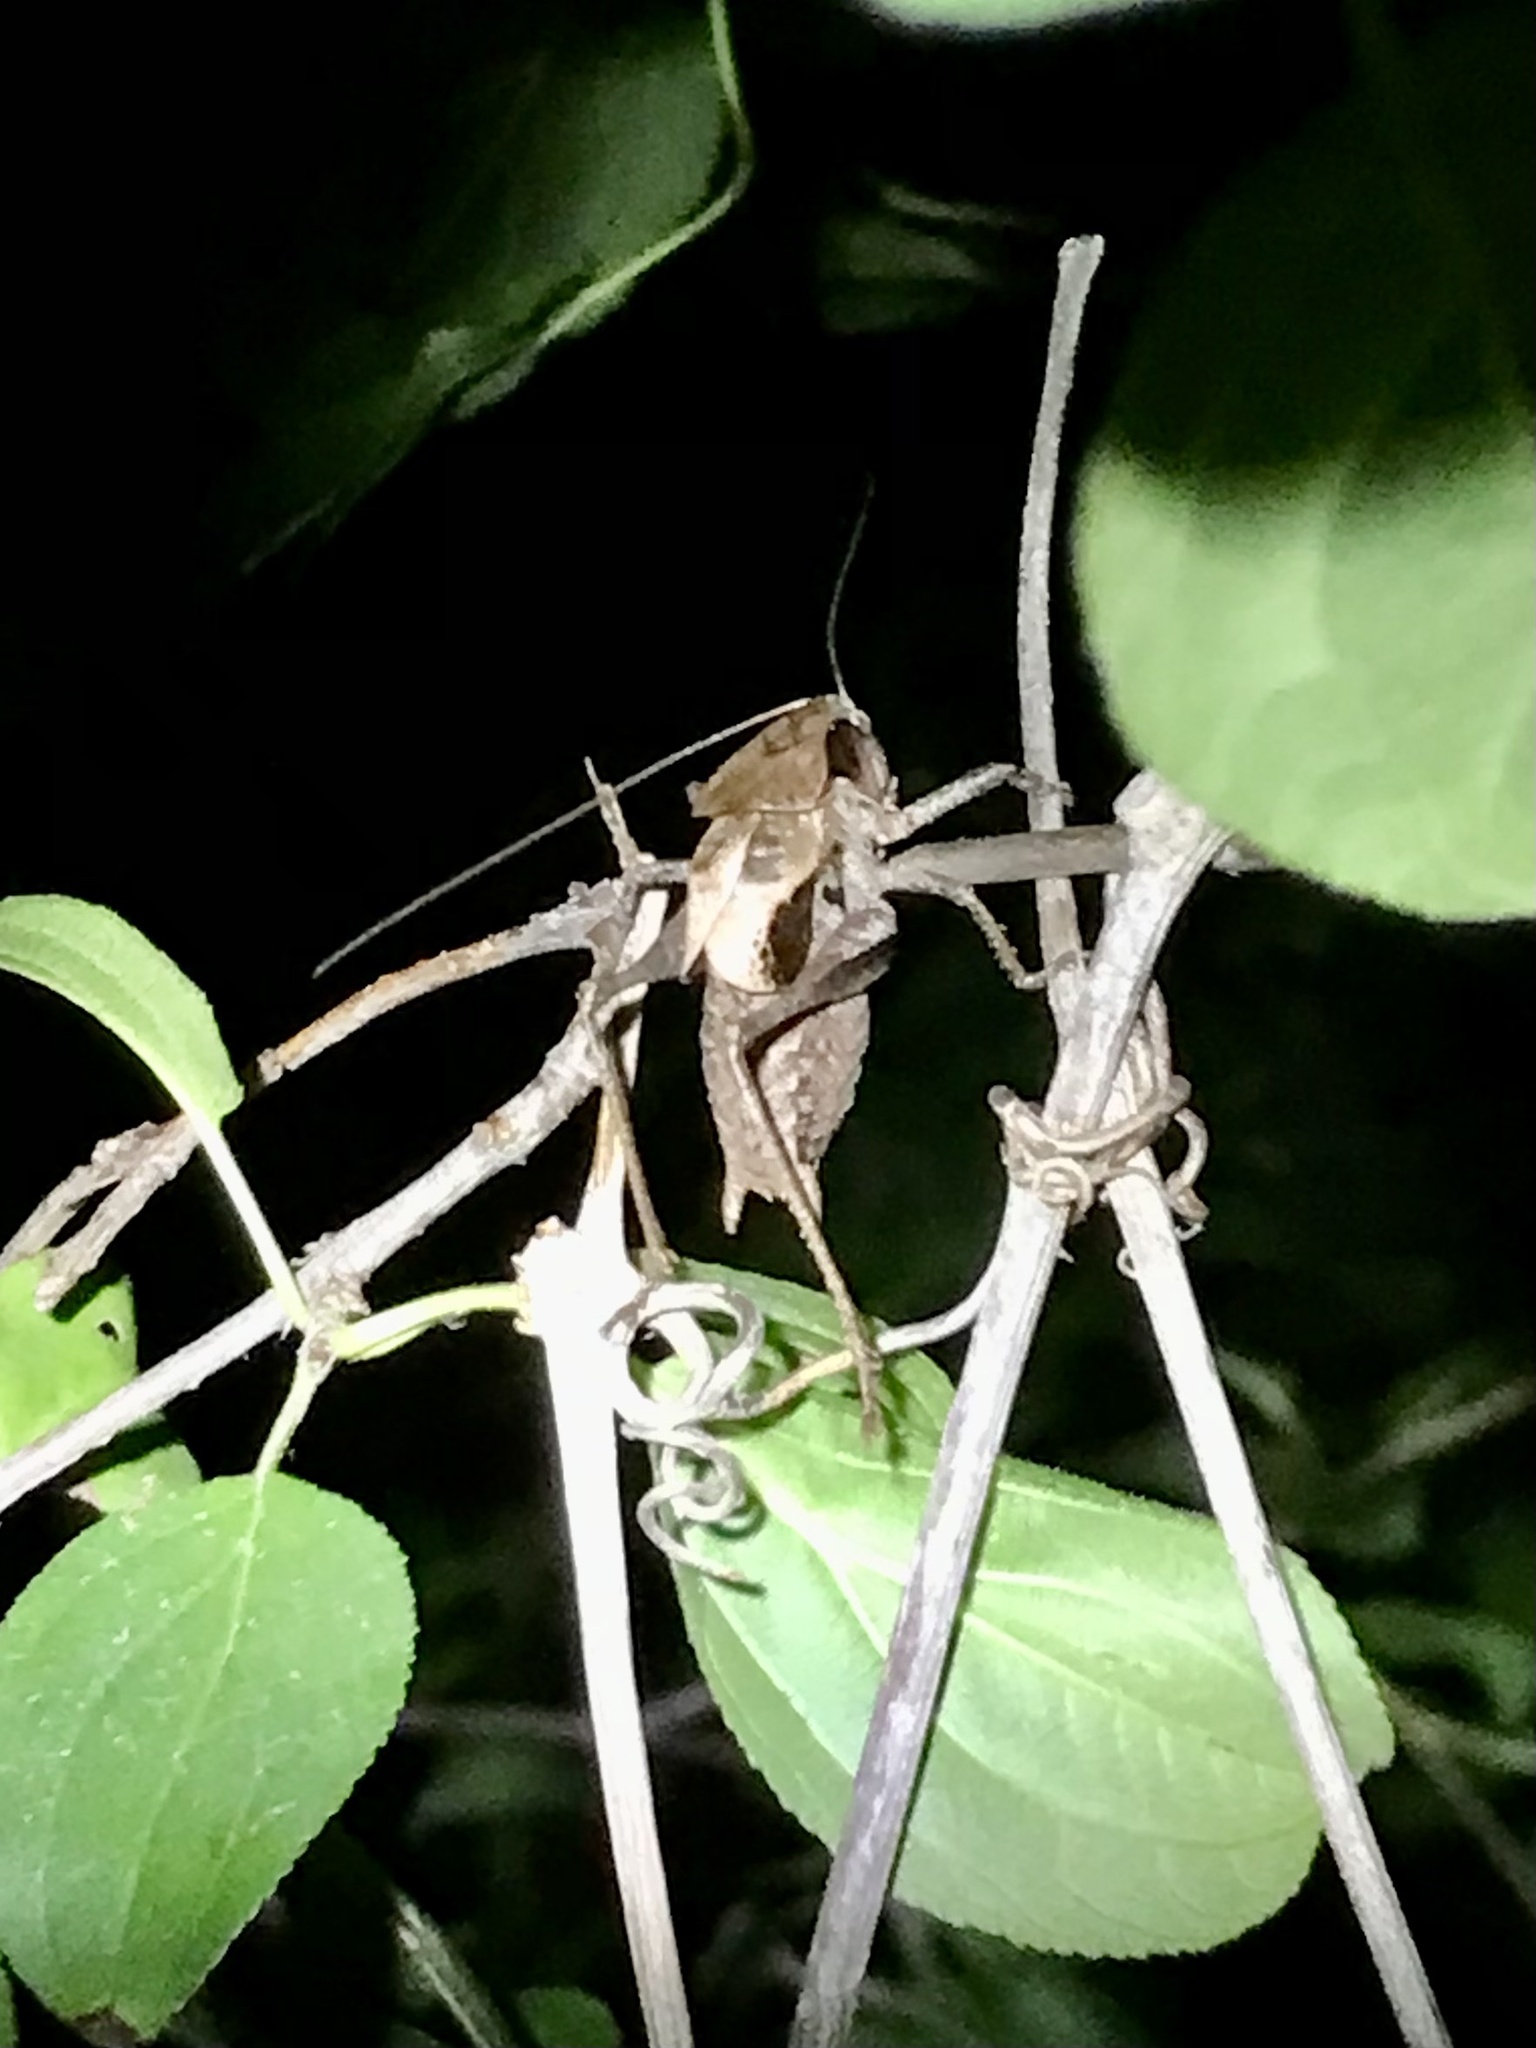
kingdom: Animalia
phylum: Arthropoda
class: Insecta
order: Orthoptera
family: Tettigoniidae
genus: Atlanticus
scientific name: Atlanticus testaceus
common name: Protean shieldback
